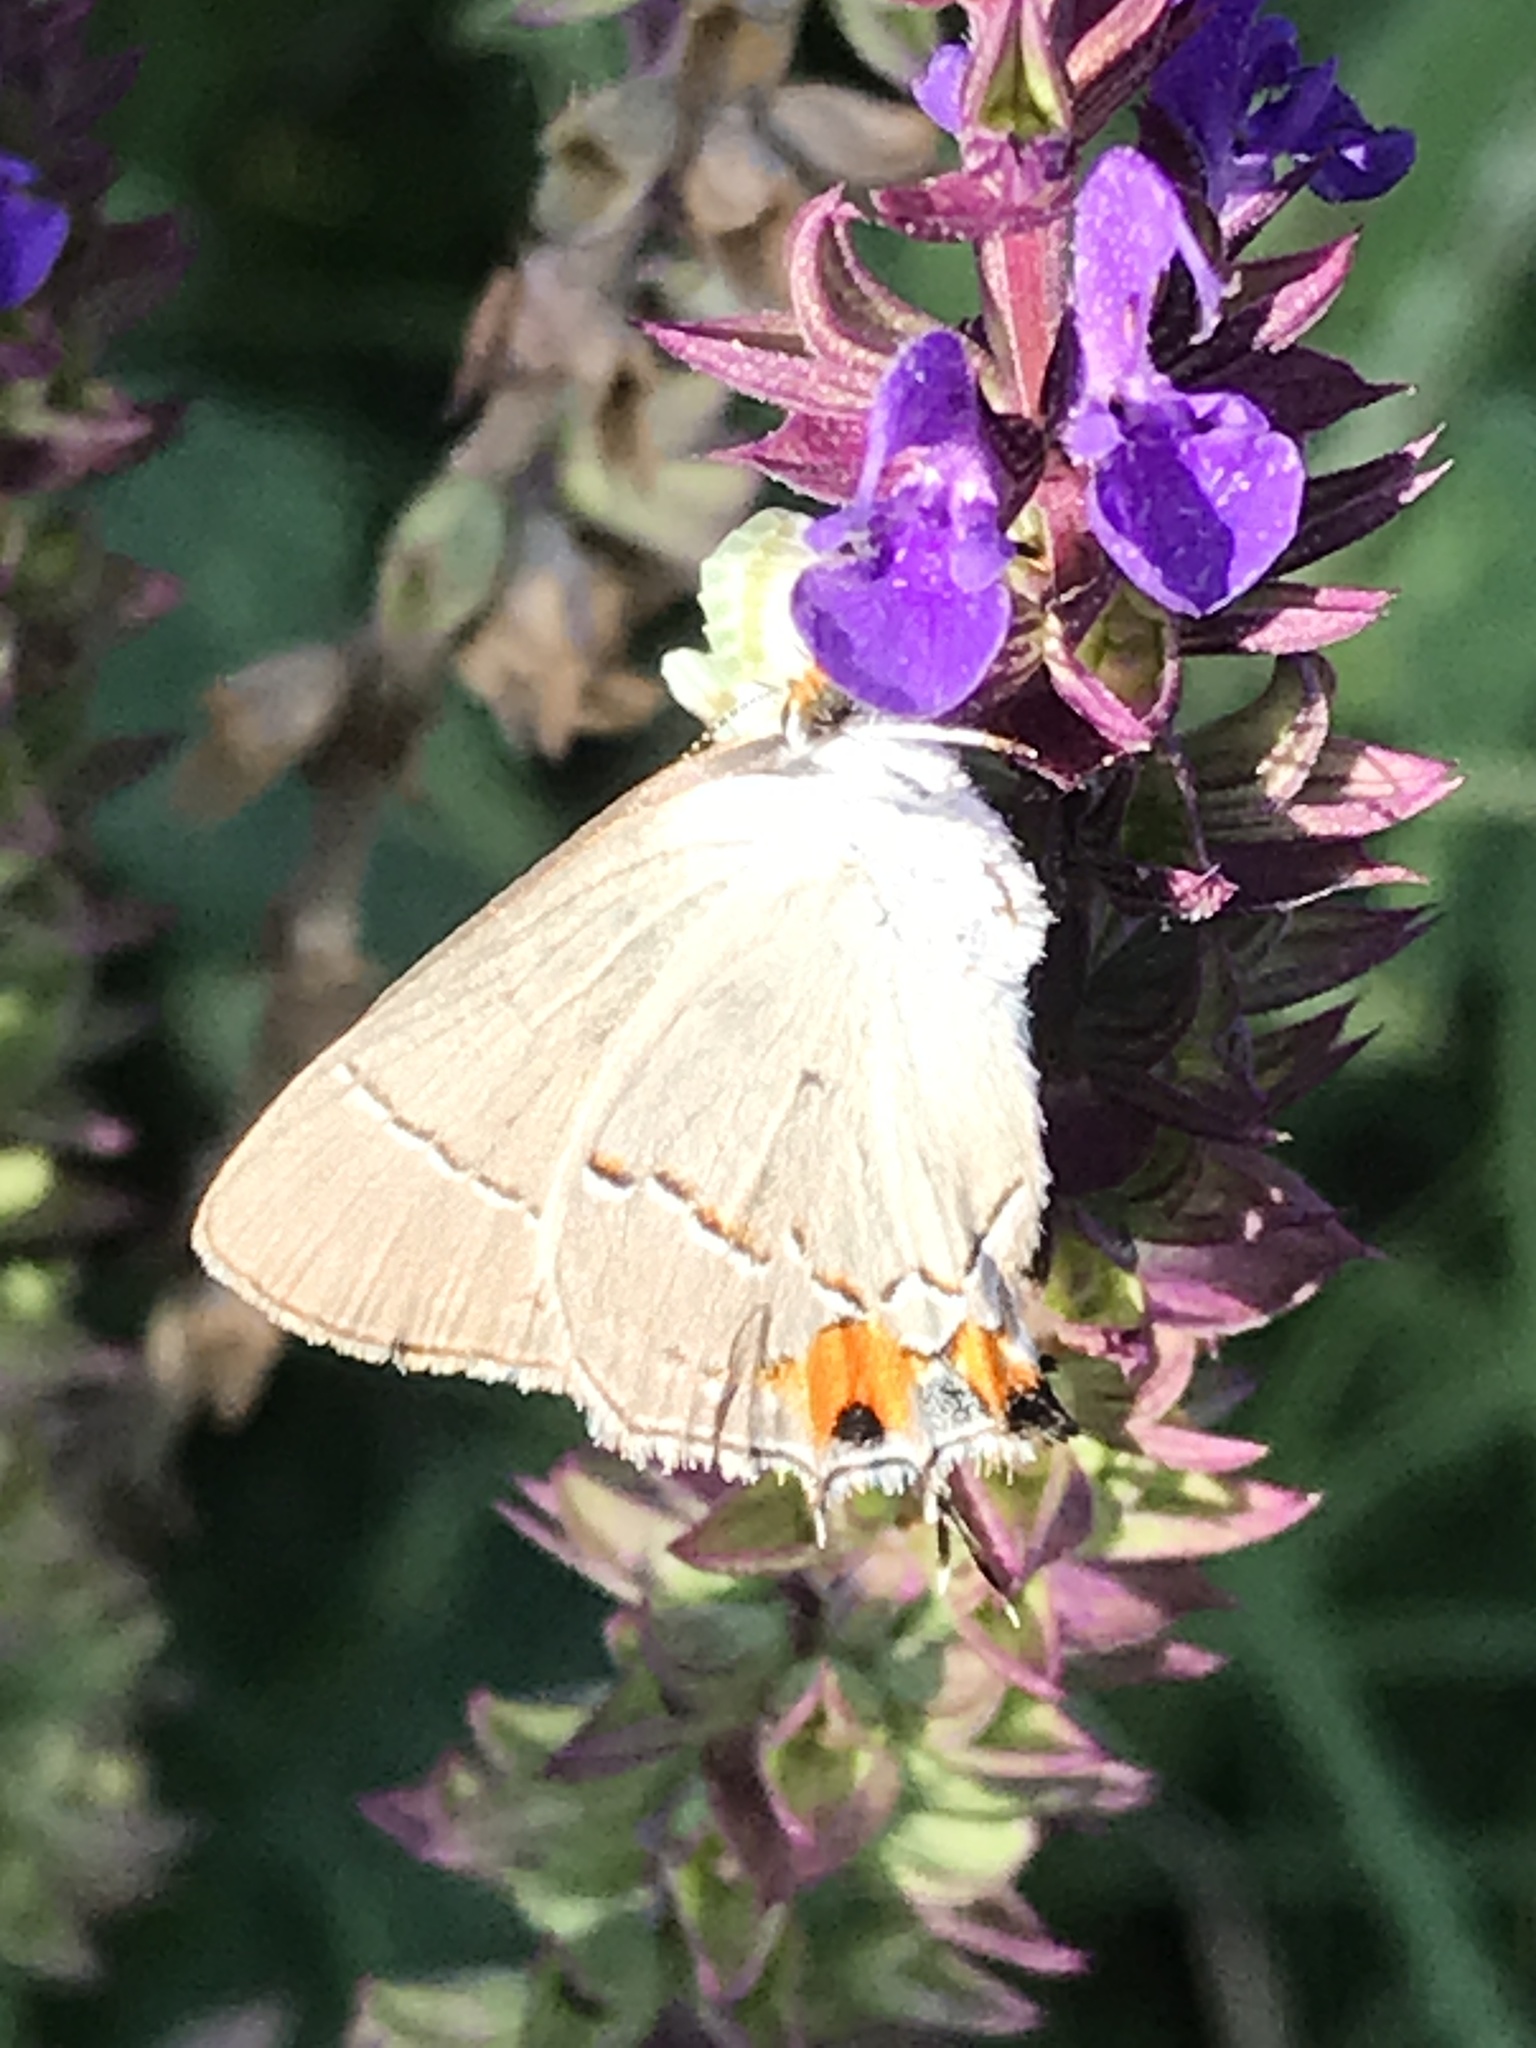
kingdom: Animalia
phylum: Arthropoda
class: Insecta
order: Lepidoptera
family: Lycaenidae
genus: Strymon
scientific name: Strymon melinus
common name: Gray hairstreak
